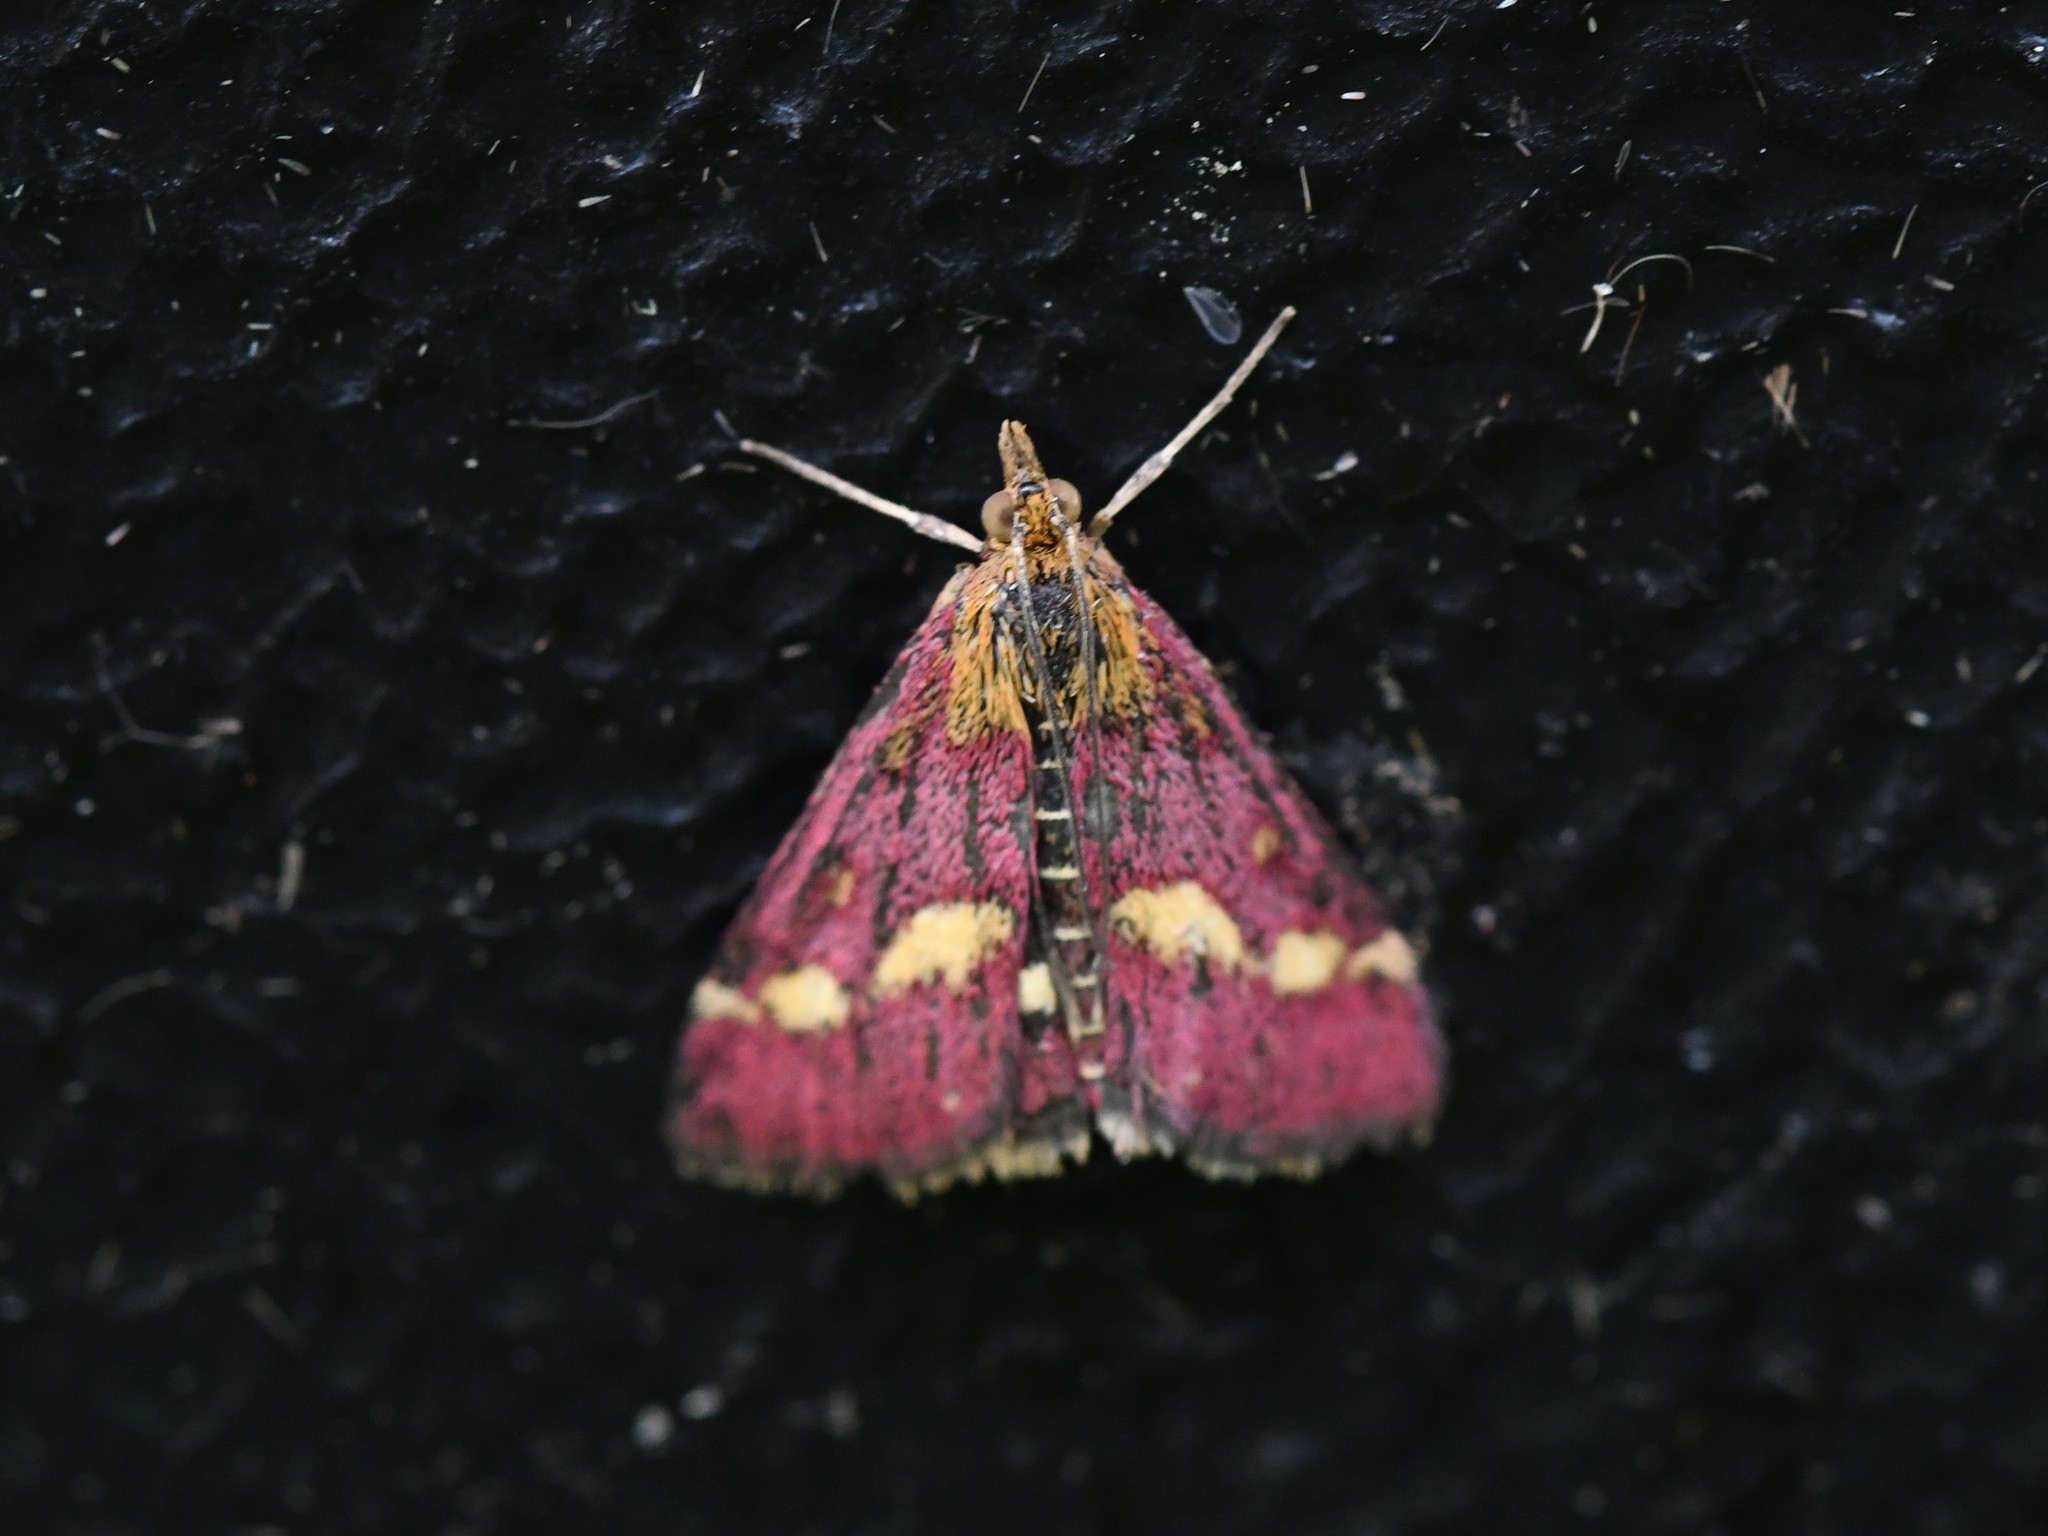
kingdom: Animalia
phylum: Arthropoda
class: Insecta
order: Lepidoptera
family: Crambidae
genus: Pyrausta
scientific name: Pyrausta purpuralis
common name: Common purple & gold
